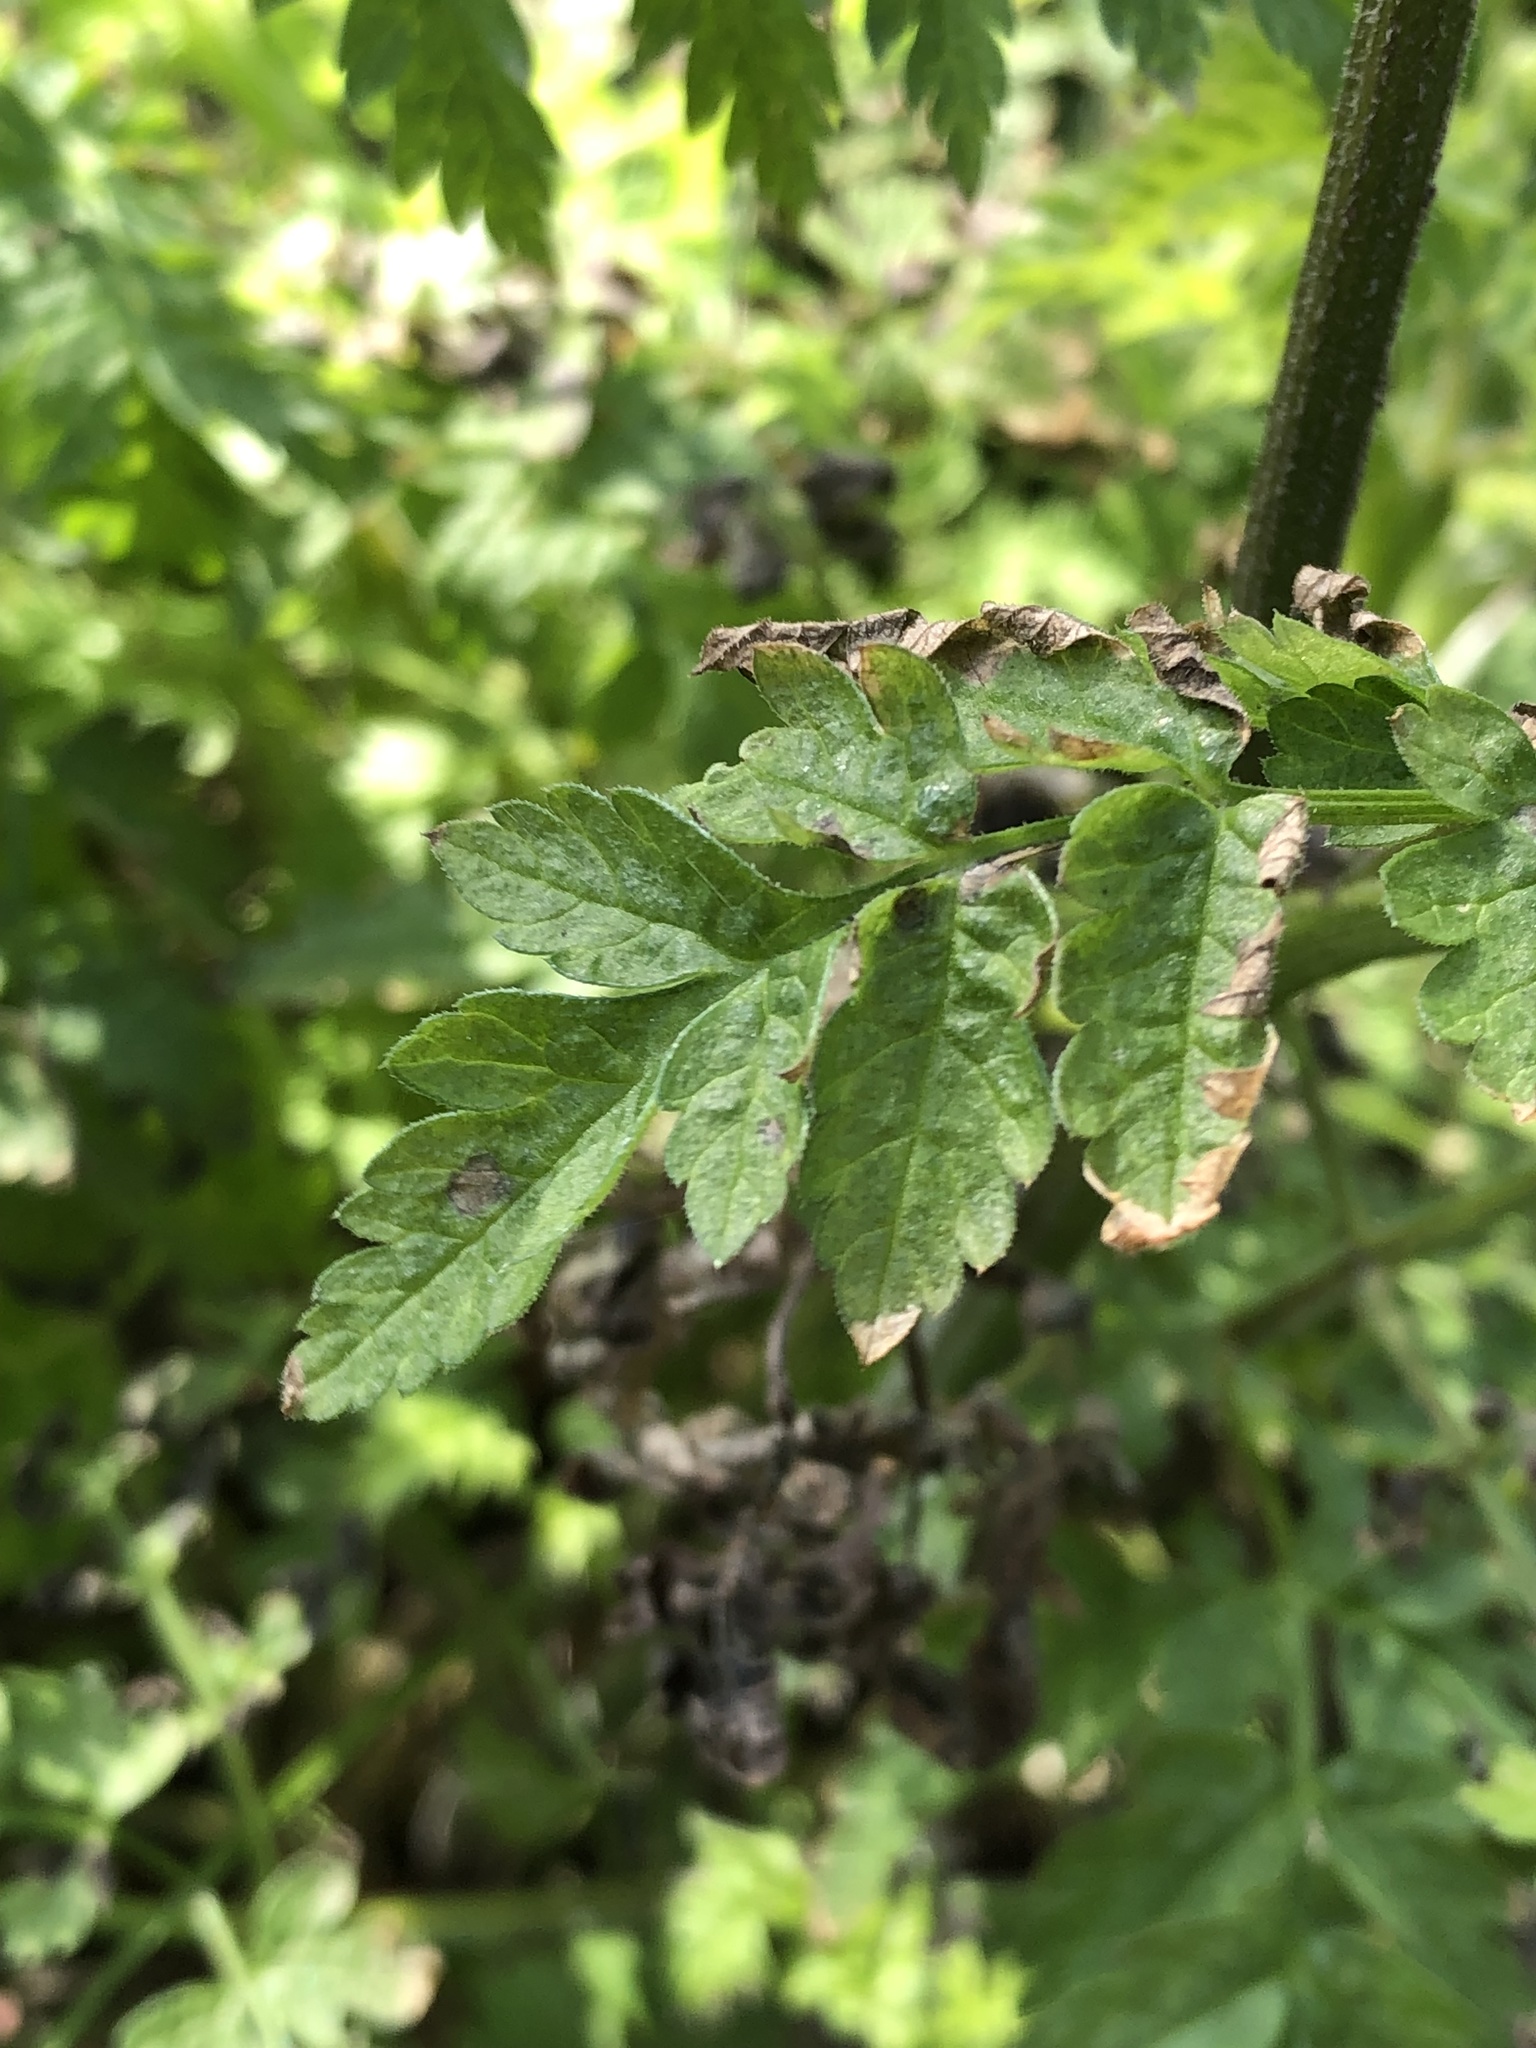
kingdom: Plantae
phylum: Tracheophyta
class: Magnoliopsida
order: Apiales
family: Apiaceae
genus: Anthriscus
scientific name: Anthriscus sylvestris
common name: Cow parsley
